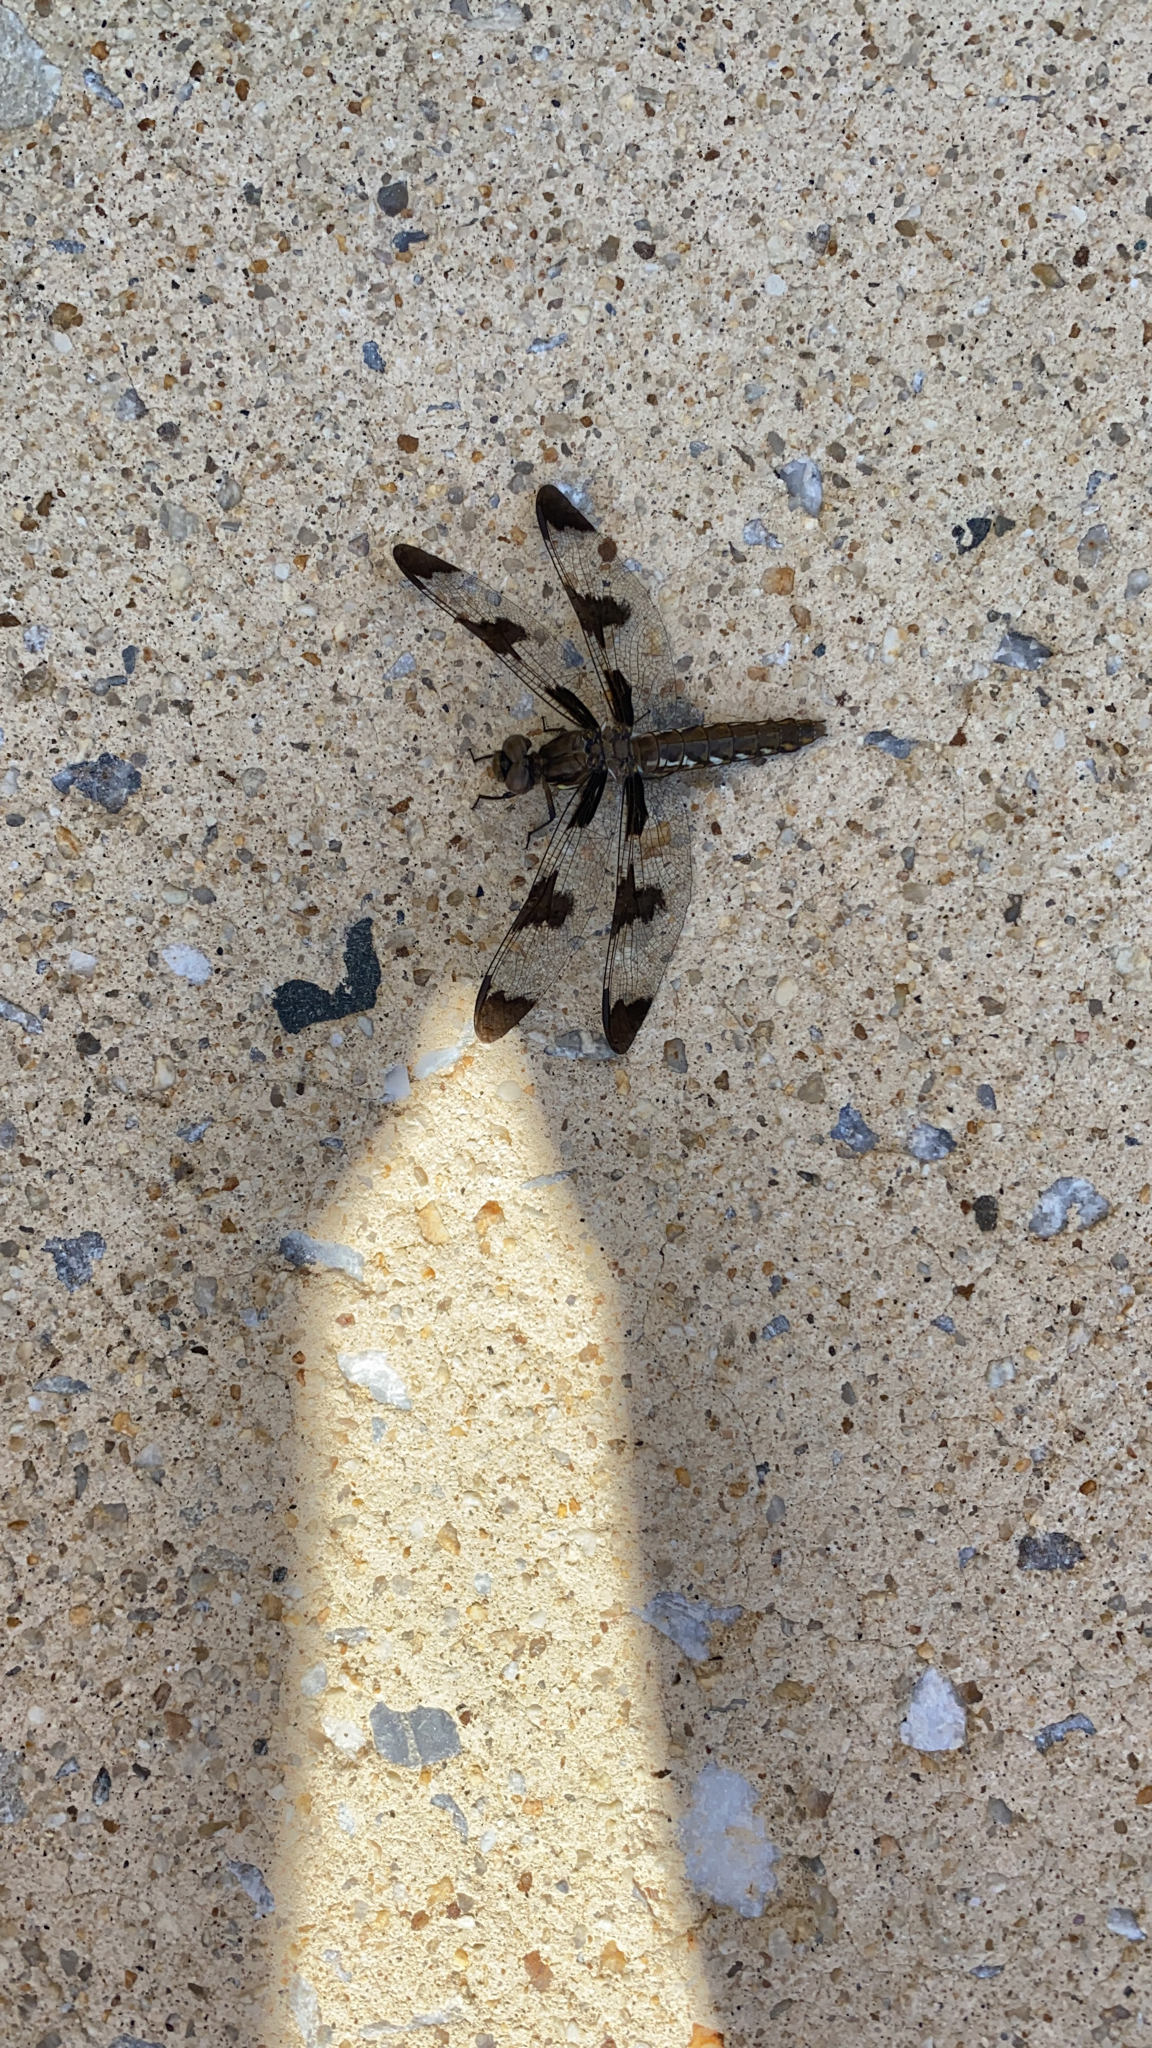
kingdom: Animalia
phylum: Arthropoda
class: Insecta
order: Odonata
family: Libellulidae
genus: Plathemis
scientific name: Plathemis lydia
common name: Common whitetail
